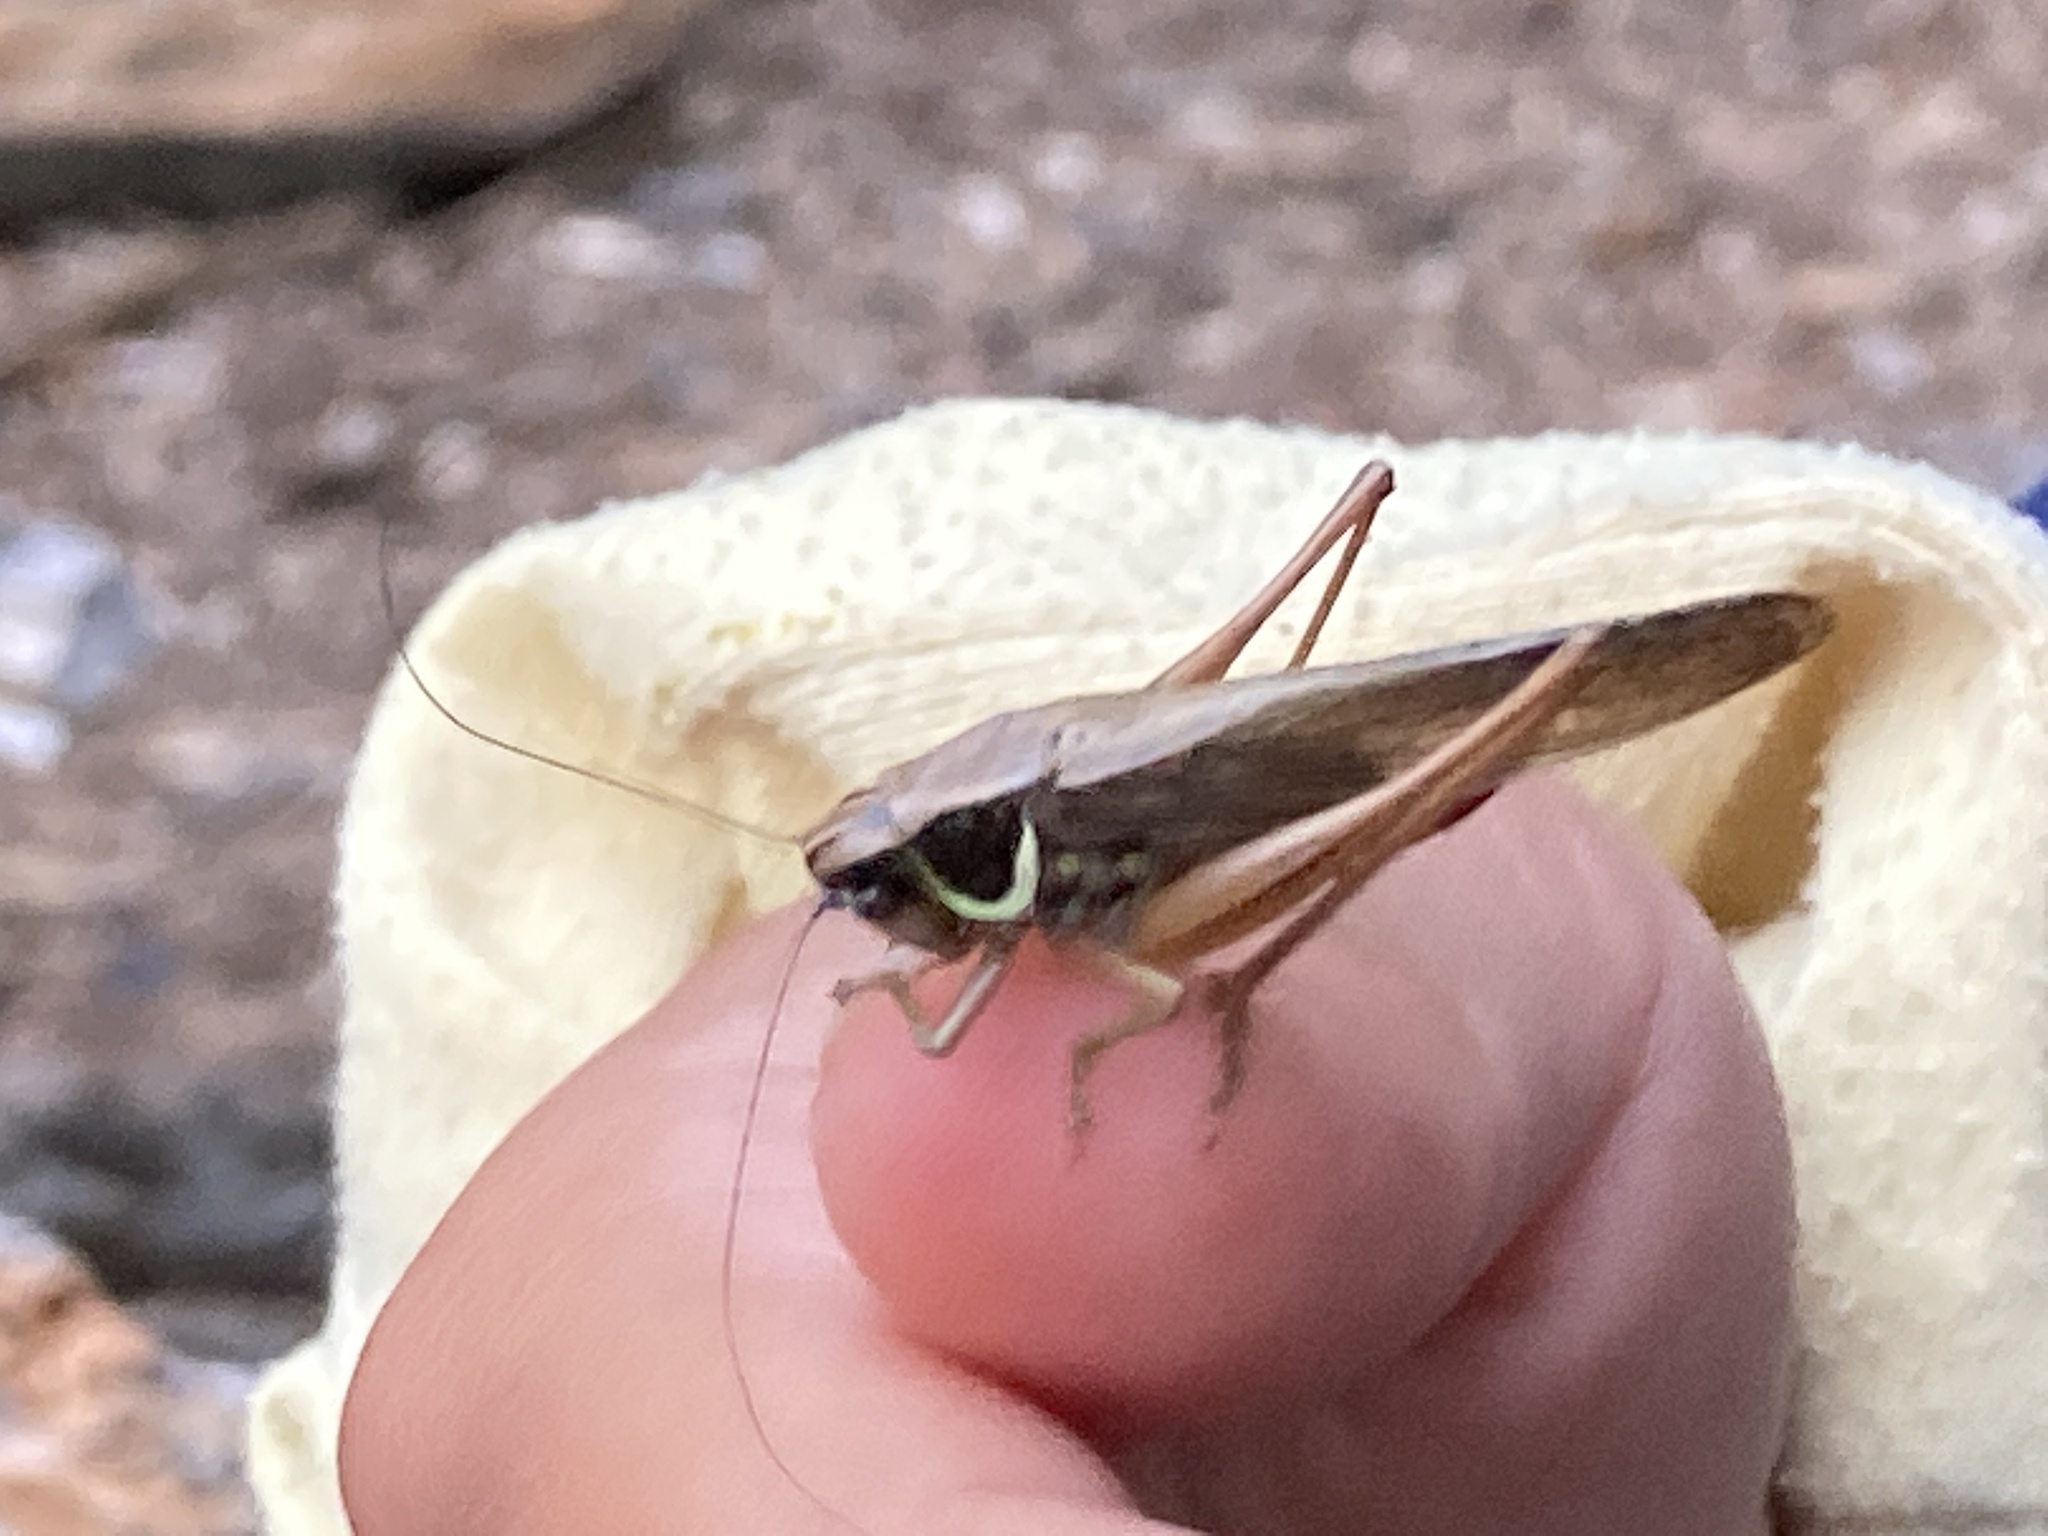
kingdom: Animalia
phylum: Arthropoda
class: Insecta
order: Orthoptera
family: Tettigoniidae
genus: Roeseliana
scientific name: Roeseliana roeselii
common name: Roesel's bush cricket
